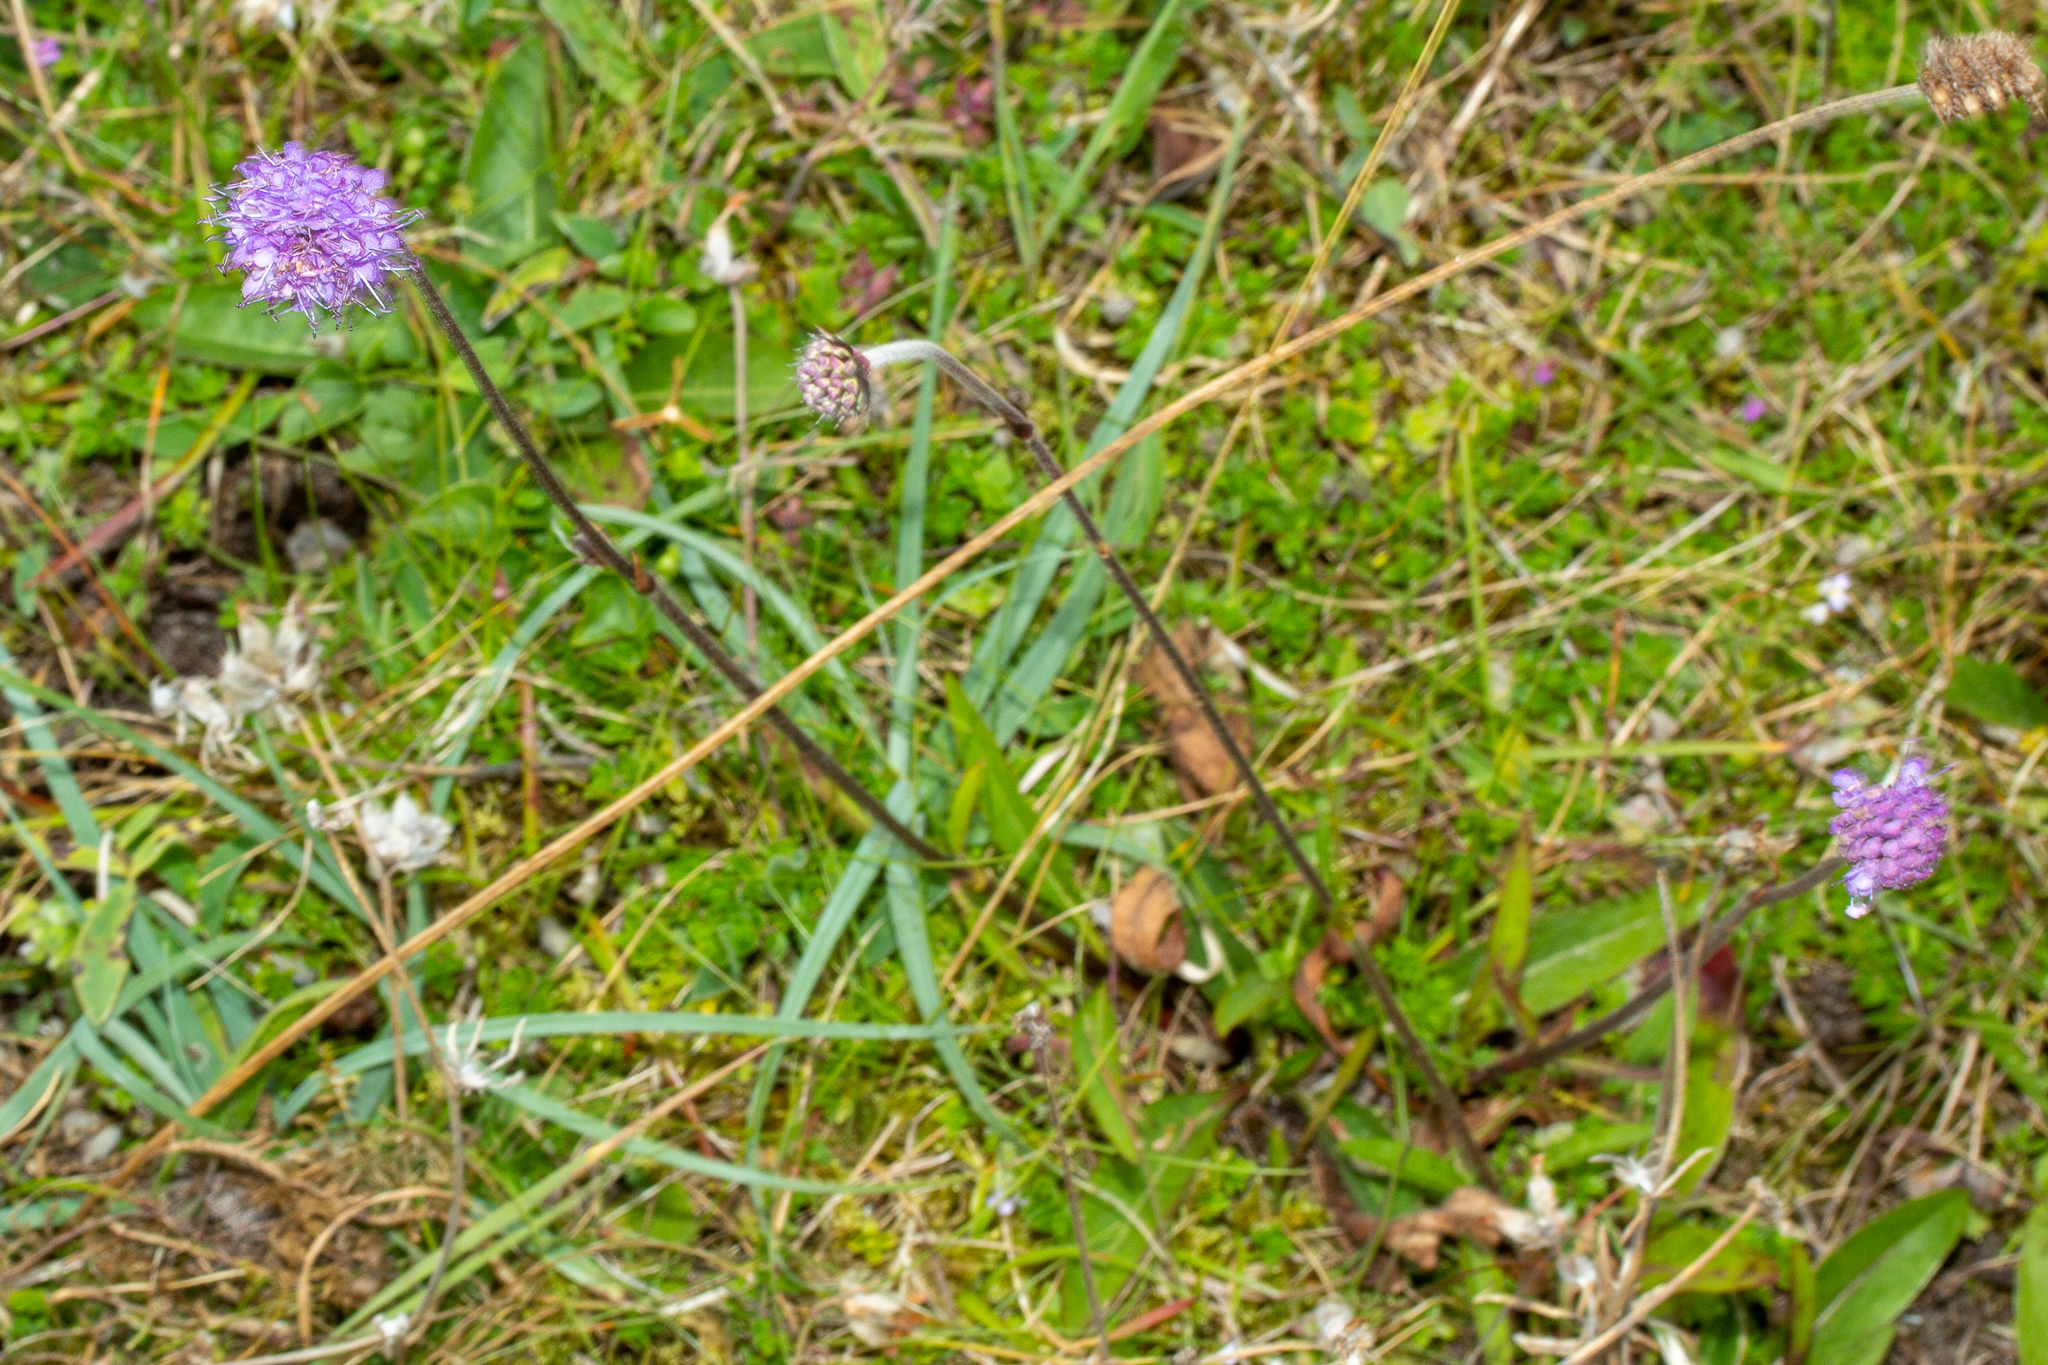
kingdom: Plantae
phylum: Tracheophyta
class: Magnoliopsida
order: Dipsacales
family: Caprifoliaceae
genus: Succisa
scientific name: Succisa pratensis
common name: Devil's-bit
